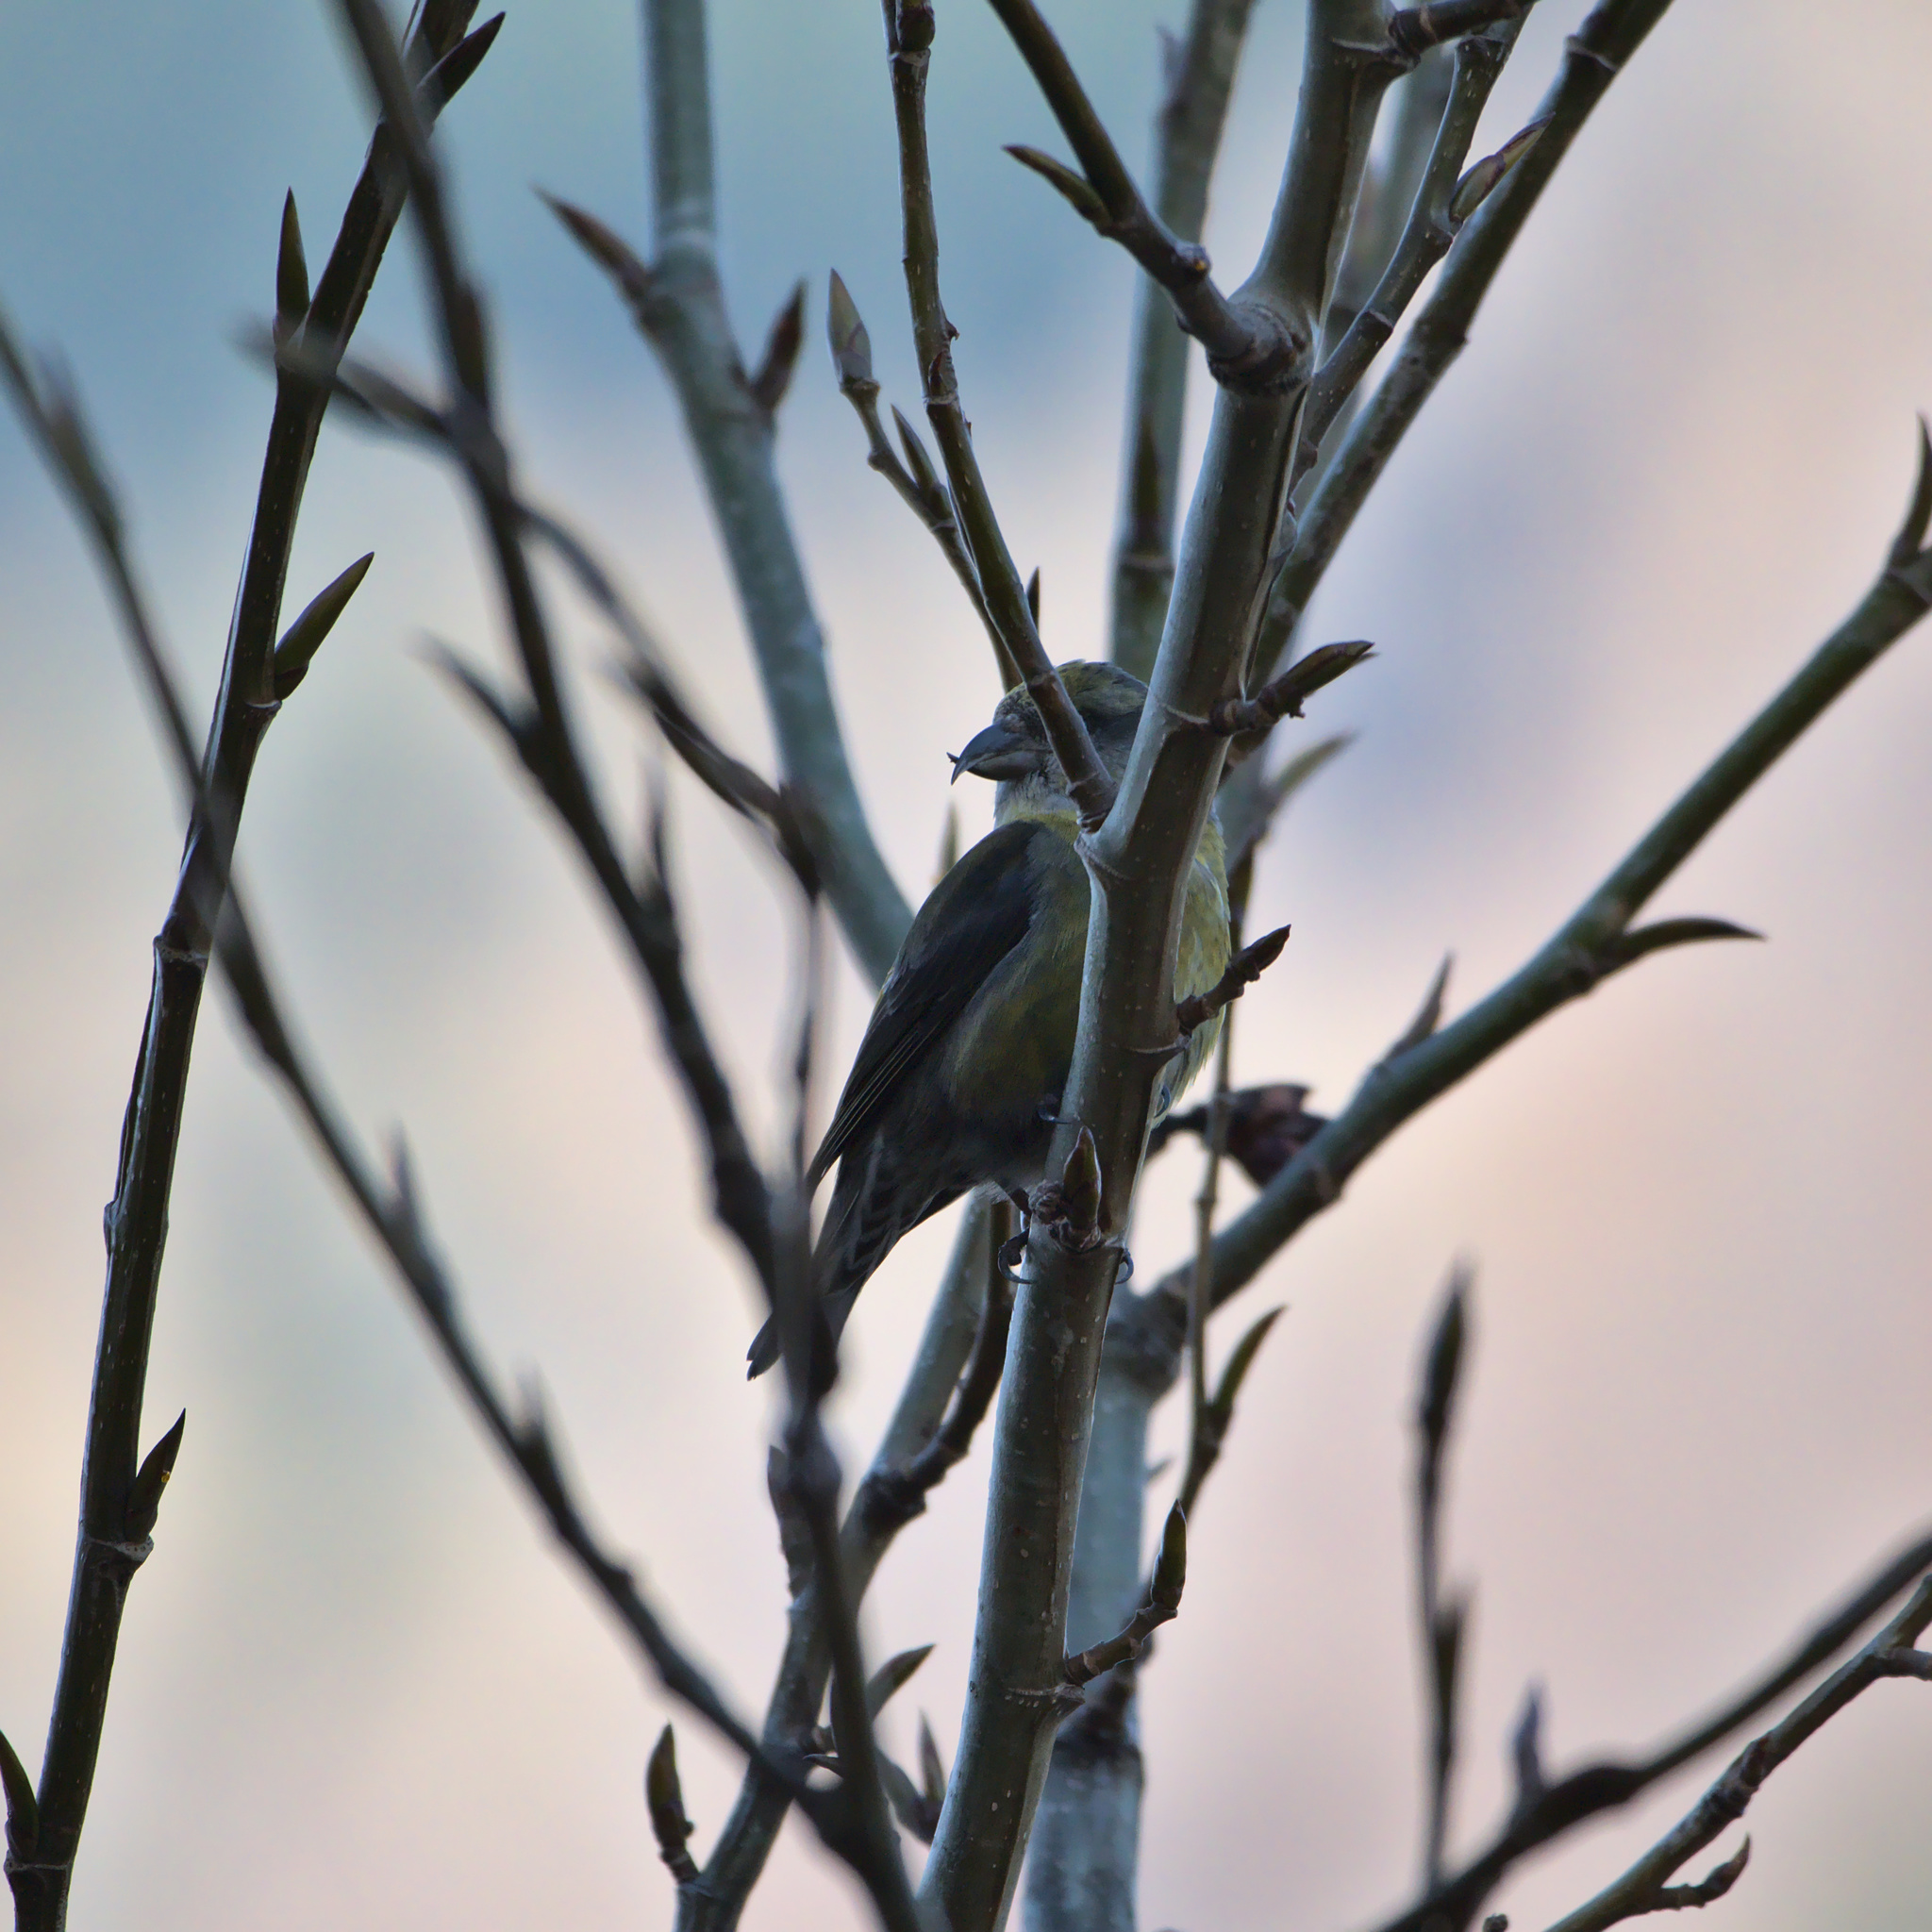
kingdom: Animalia
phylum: Chordata
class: Aves
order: Passeriformes
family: Fringillidae
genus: Loxia
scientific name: Loxia curvirostra
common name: Red crossbill
